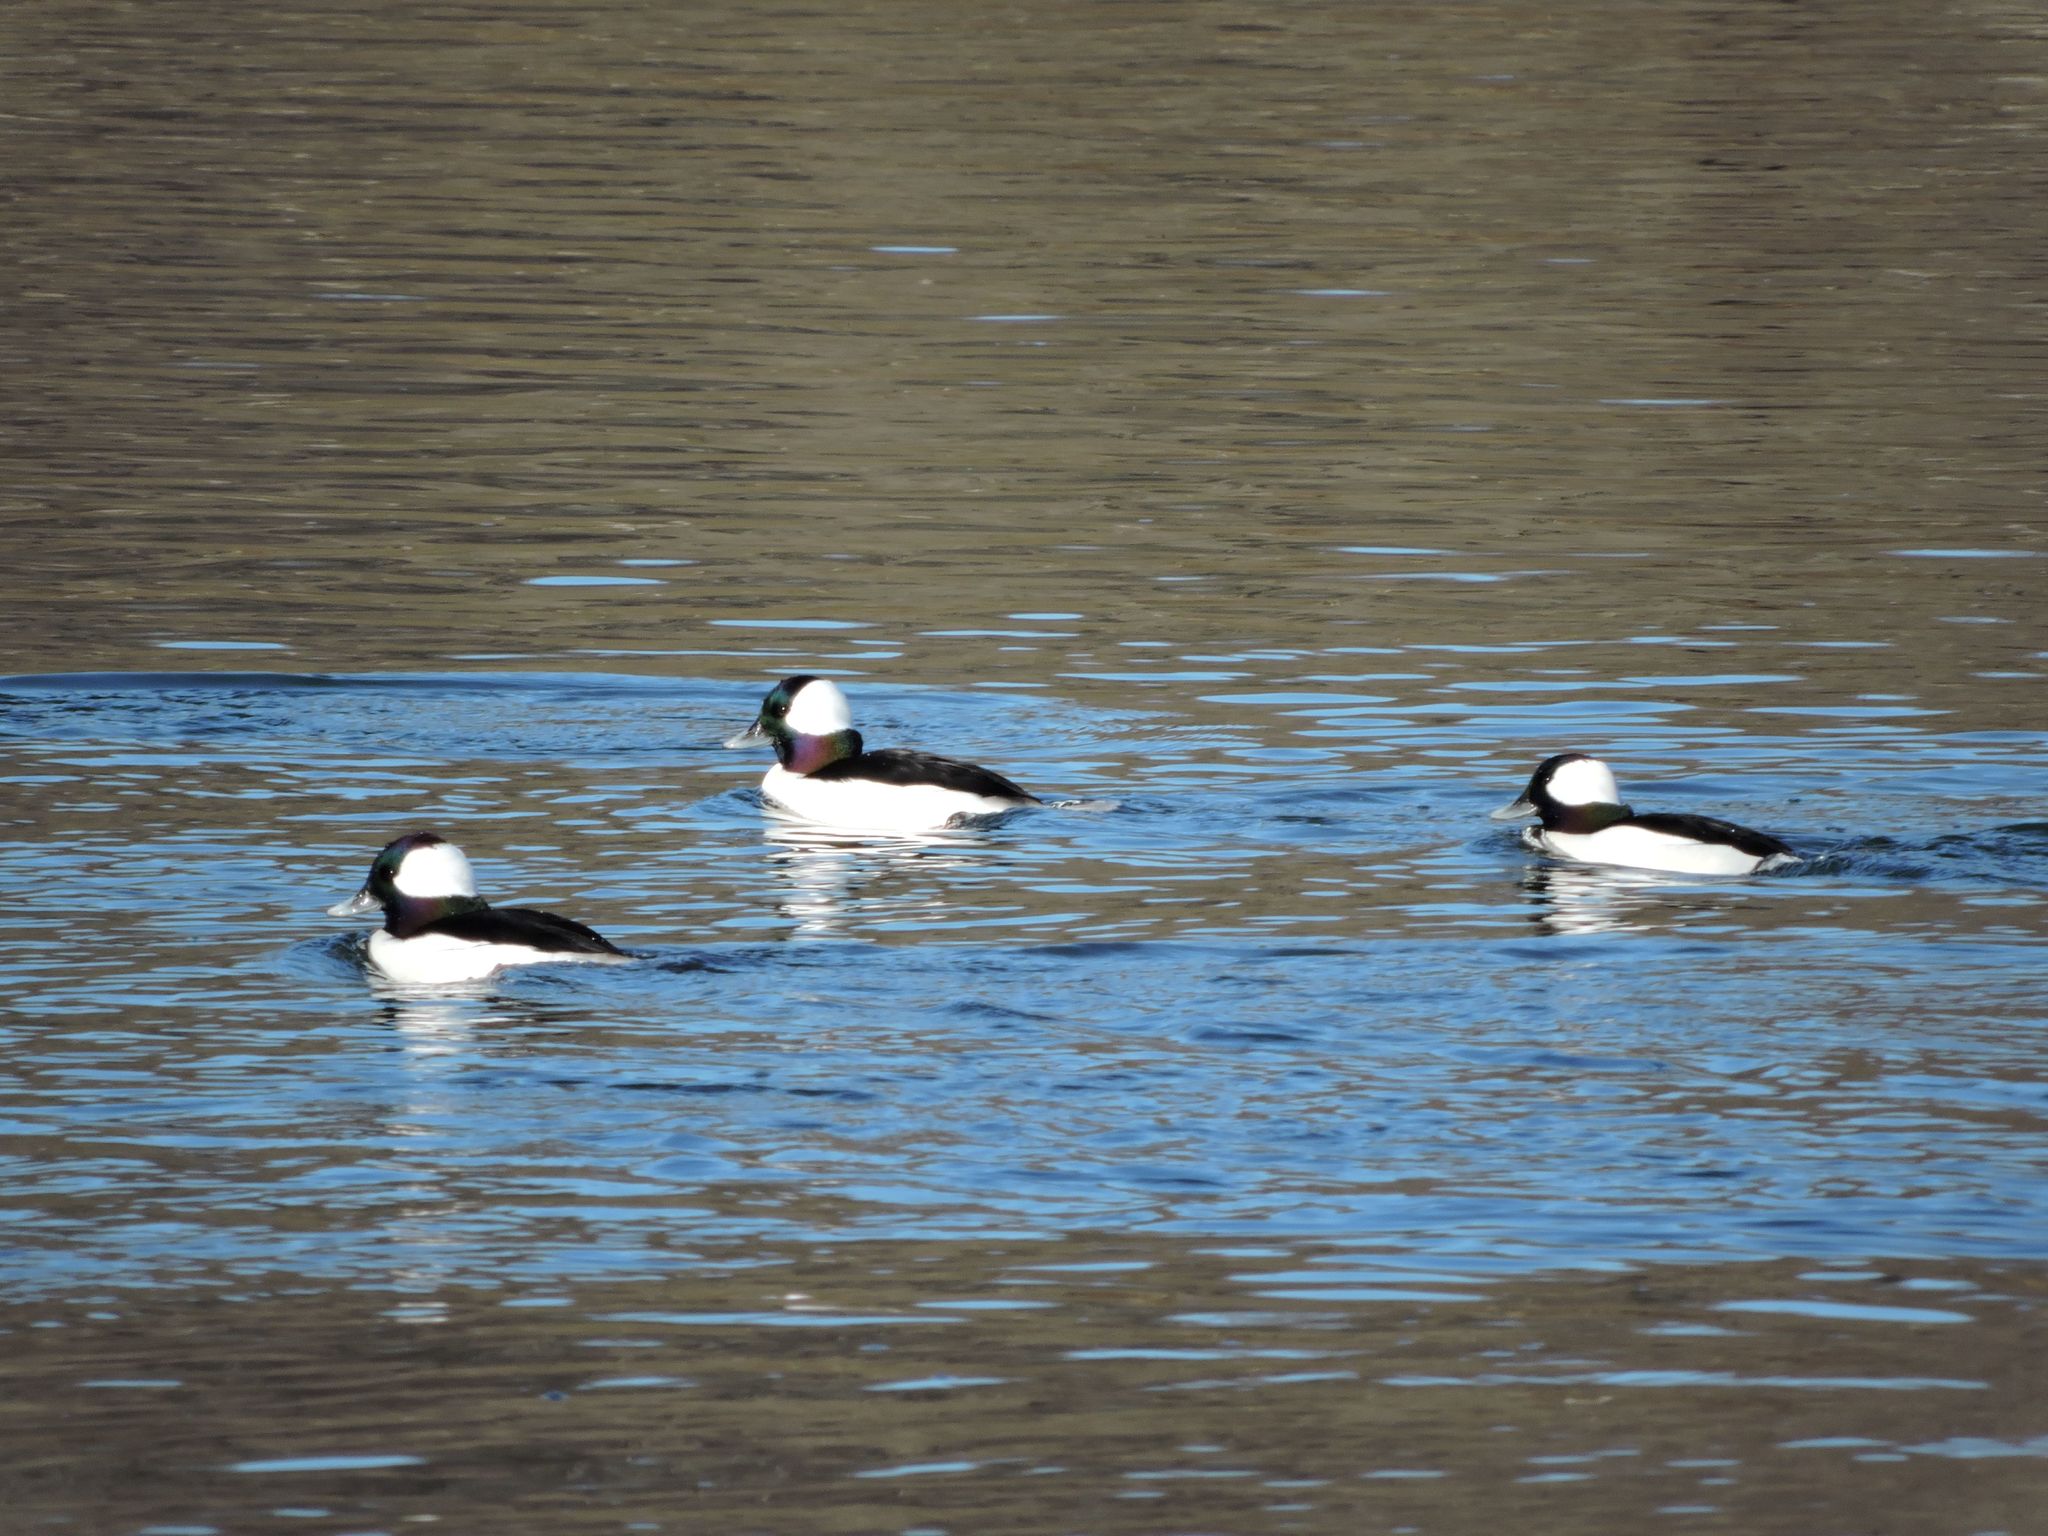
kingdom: Animalia
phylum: Chordata
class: Aves
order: Anseriformes
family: Anatidae
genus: Bucephala
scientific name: Bucephala albeola
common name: Bufflehead
